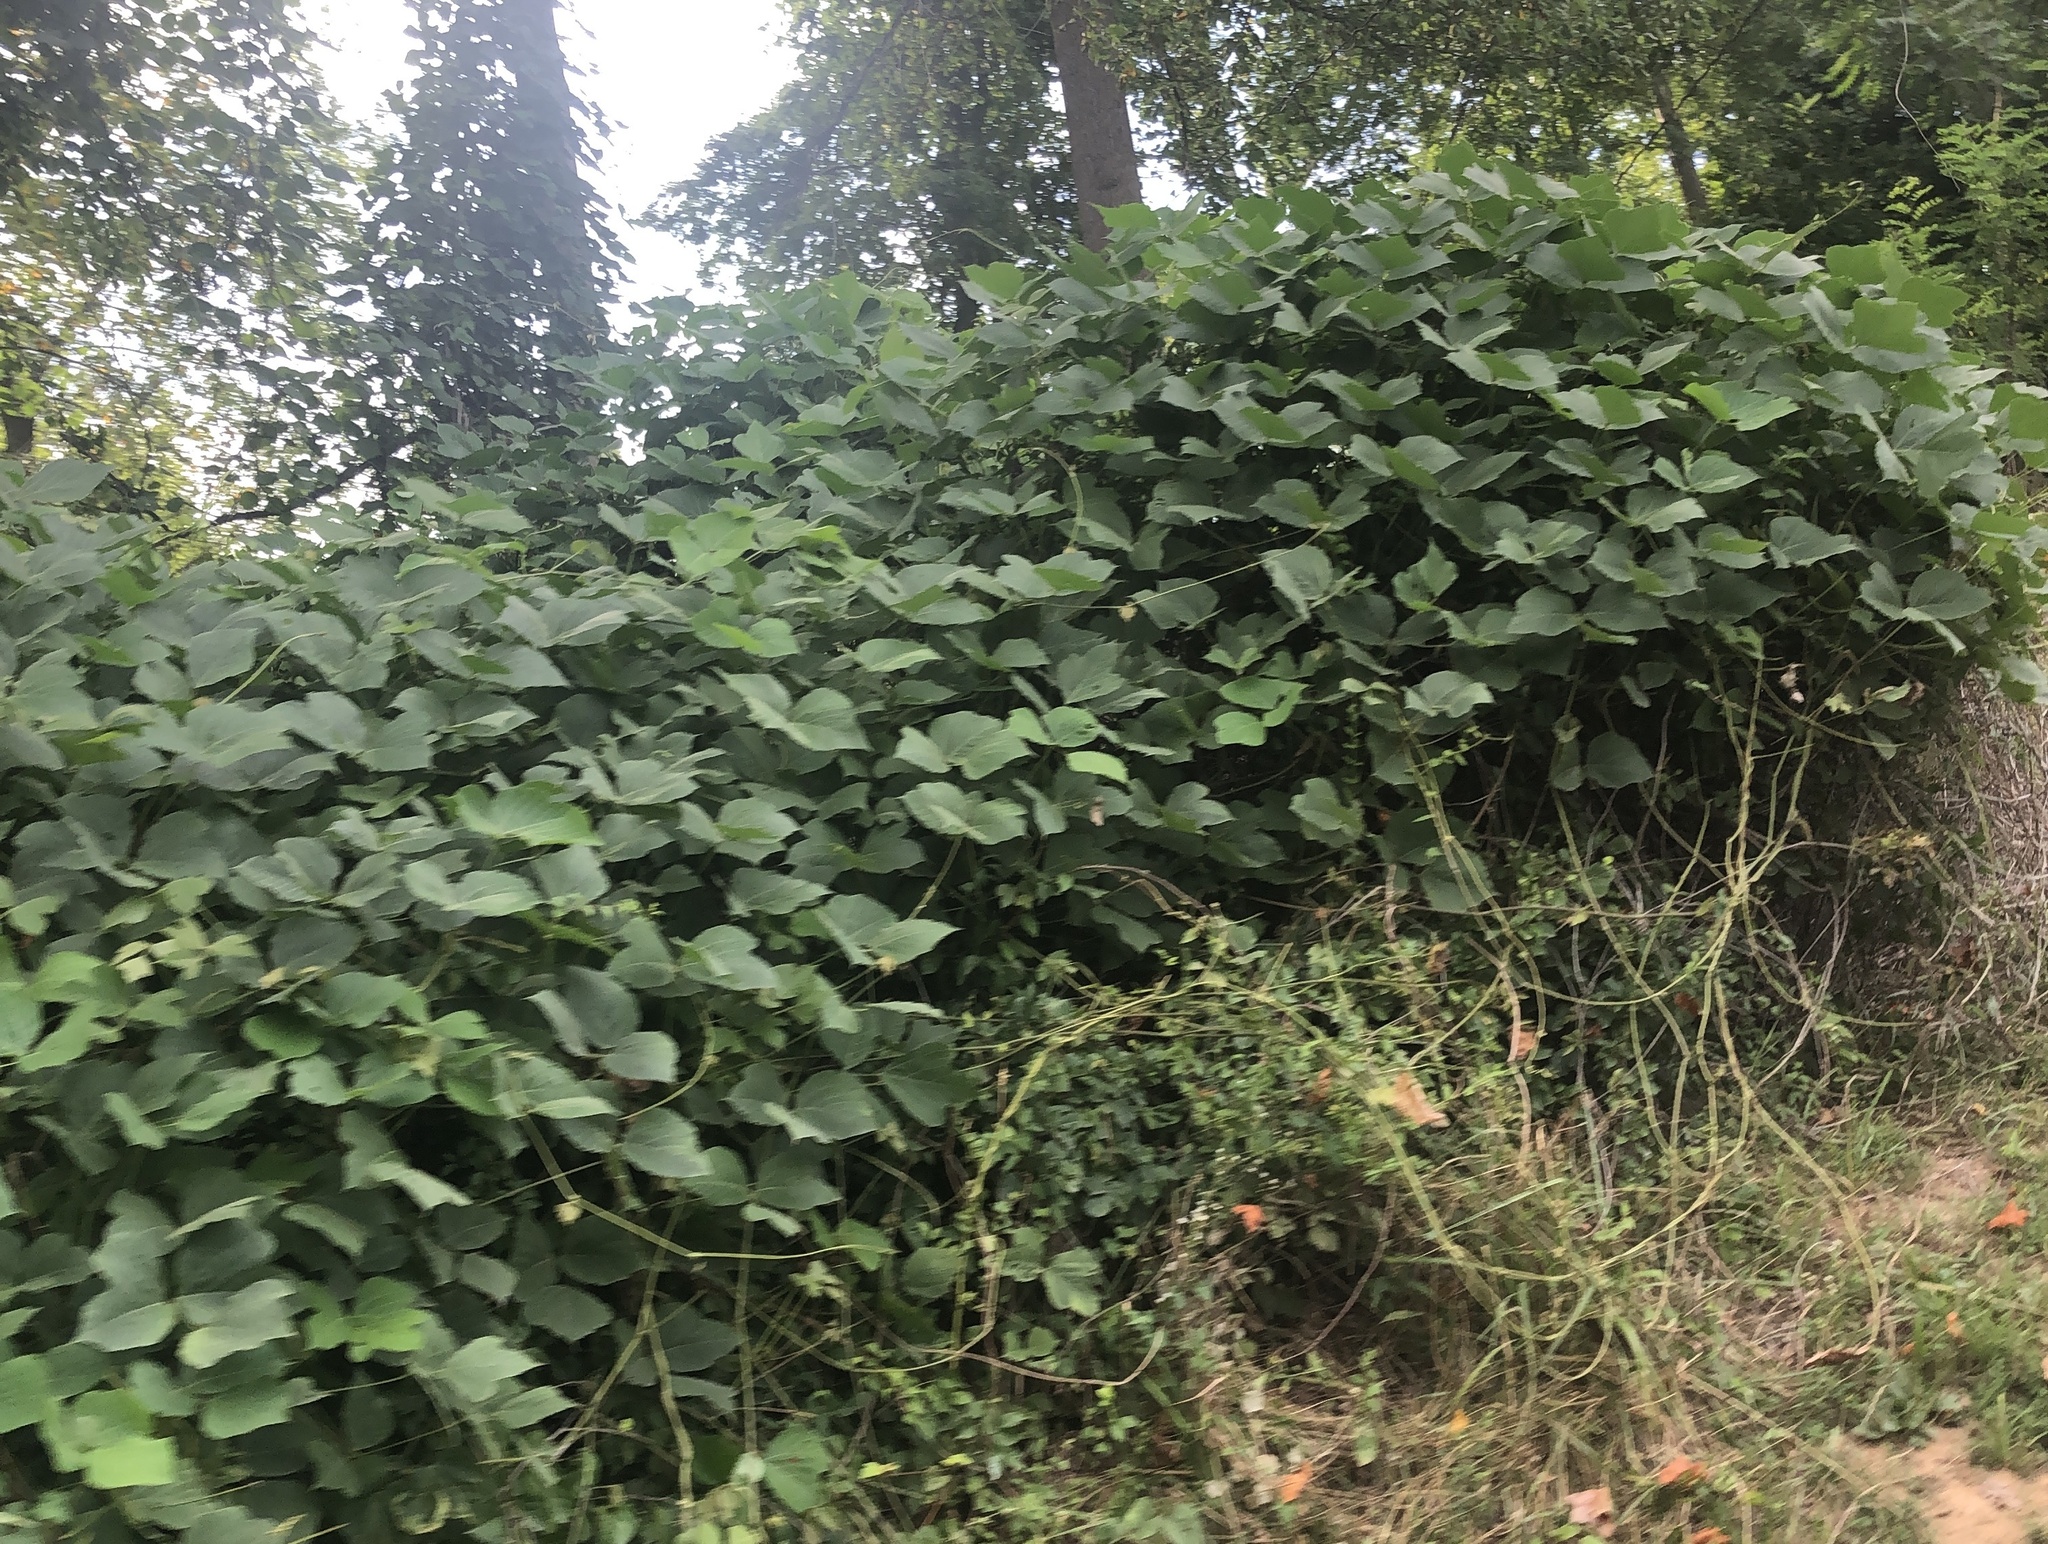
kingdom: Plantae
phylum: Tracheophyta
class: Magnoliopsida
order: Fabales
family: Fabaceae
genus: Pueraria
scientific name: Pueraria montana
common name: Kudzu
